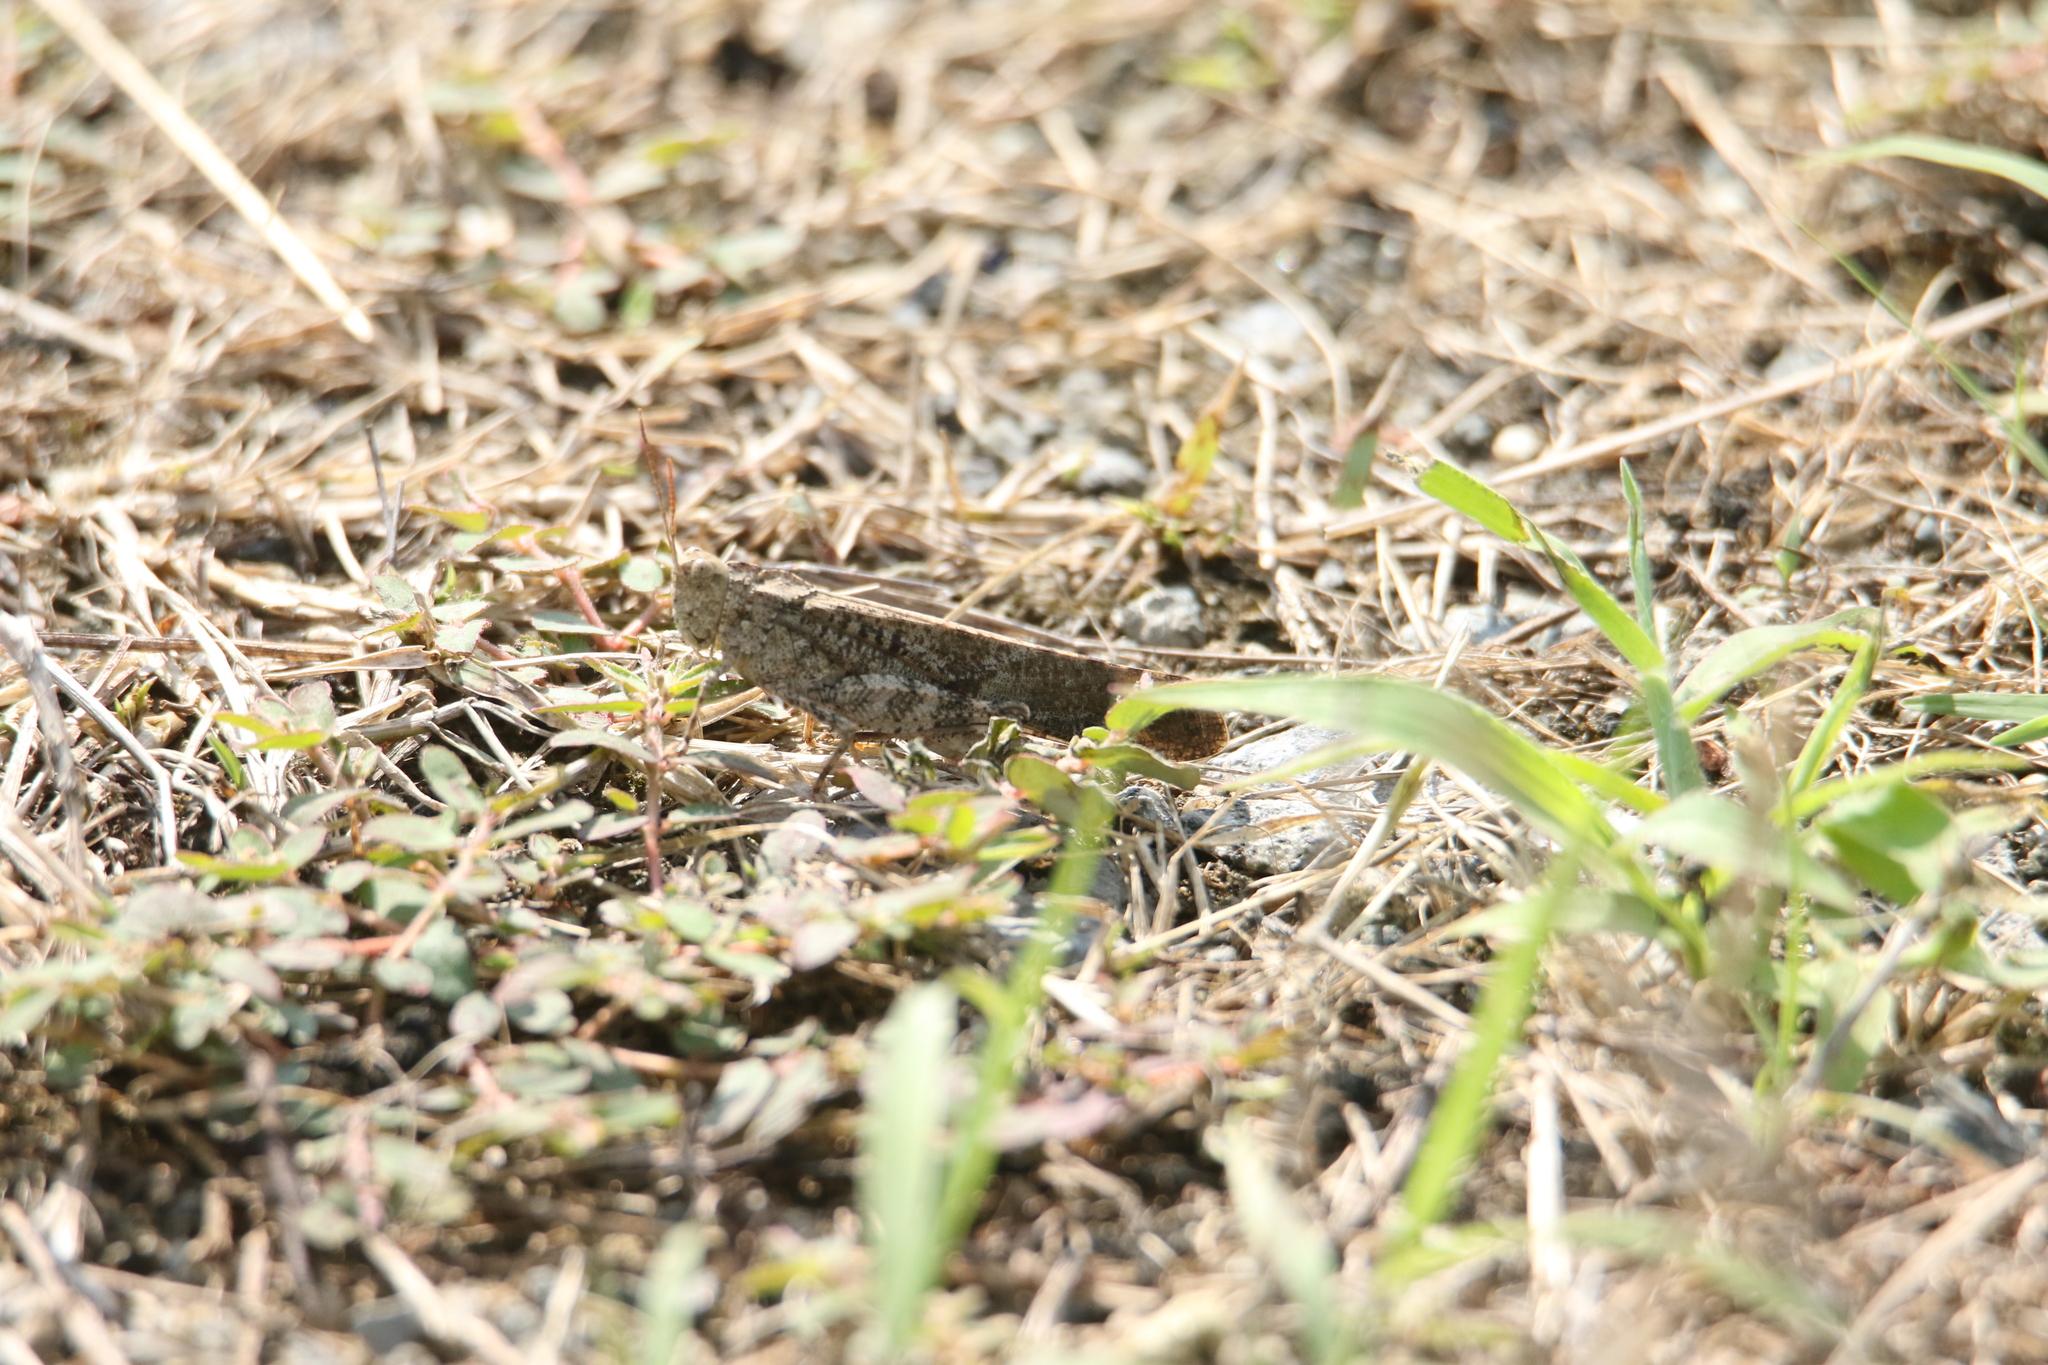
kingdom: Animalia
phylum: Arthropoda
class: Insecta
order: Orthoptera
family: Acrididae
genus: Dissosteira
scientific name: Dissosteira carolina
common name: Carolina grasshopper
